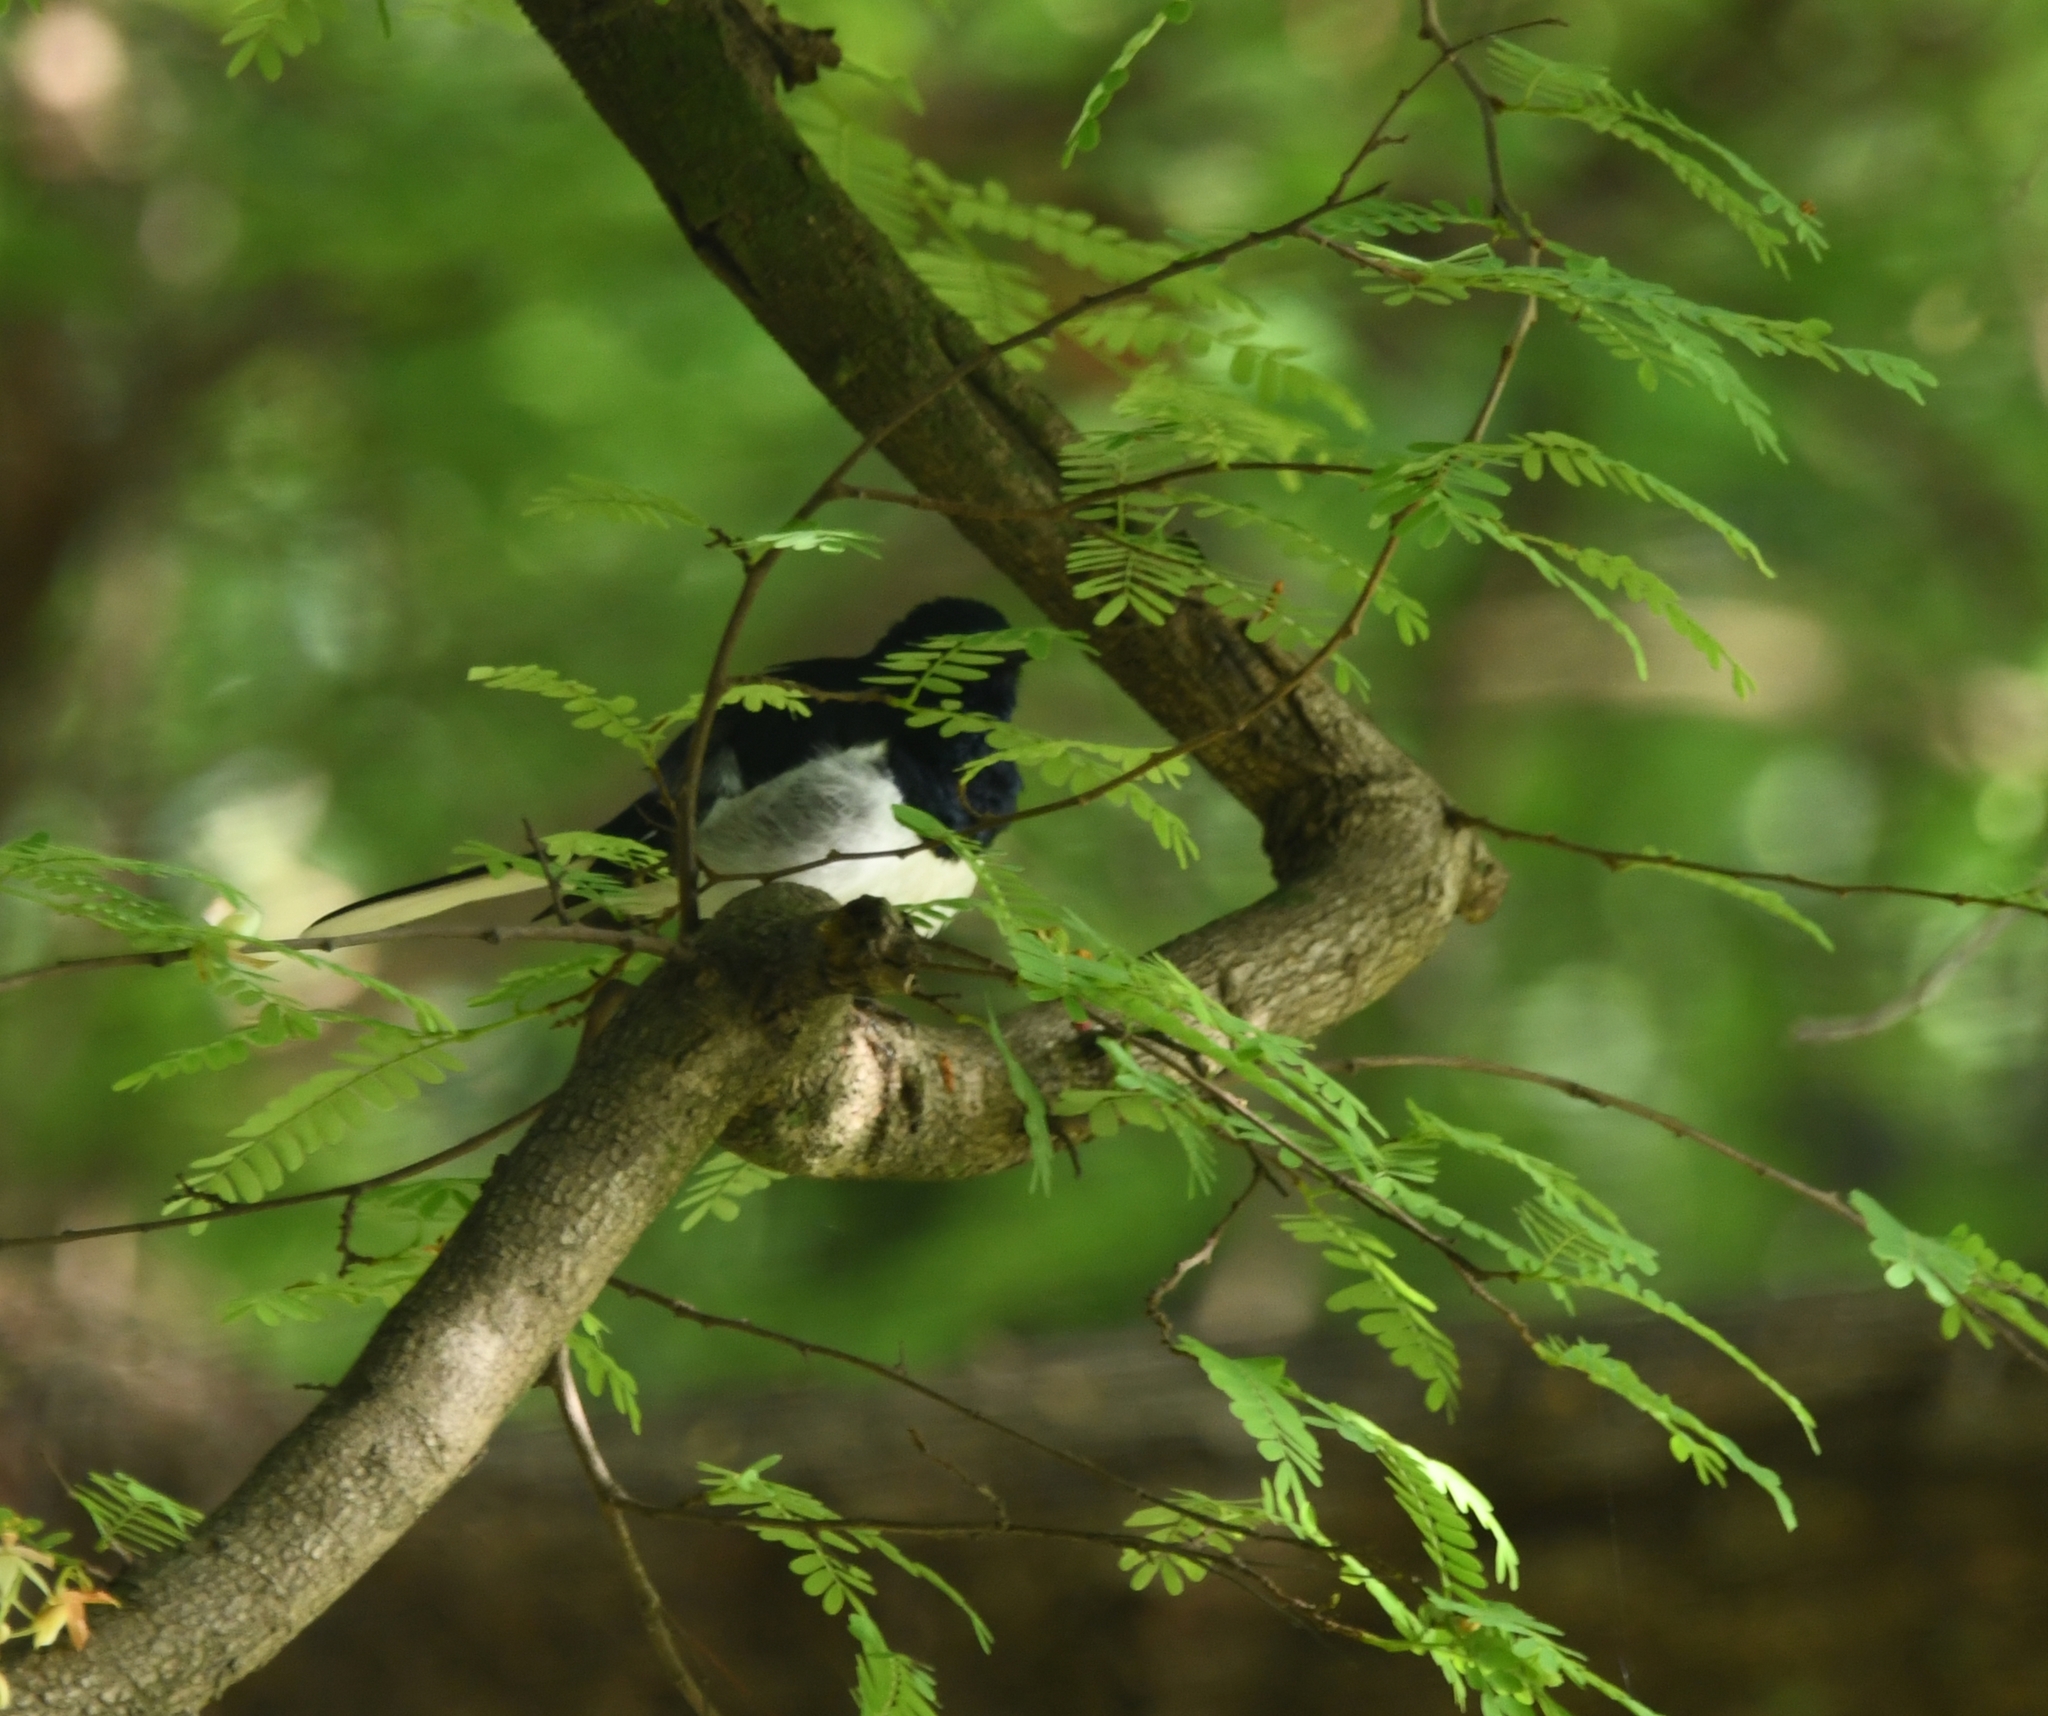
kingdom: Animalia
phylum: Chordata
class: Aves
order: Passeriformes
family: Muscicapidae
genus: Copsychus
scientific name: Copsychus saularis
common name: Oriental magpie-robin
